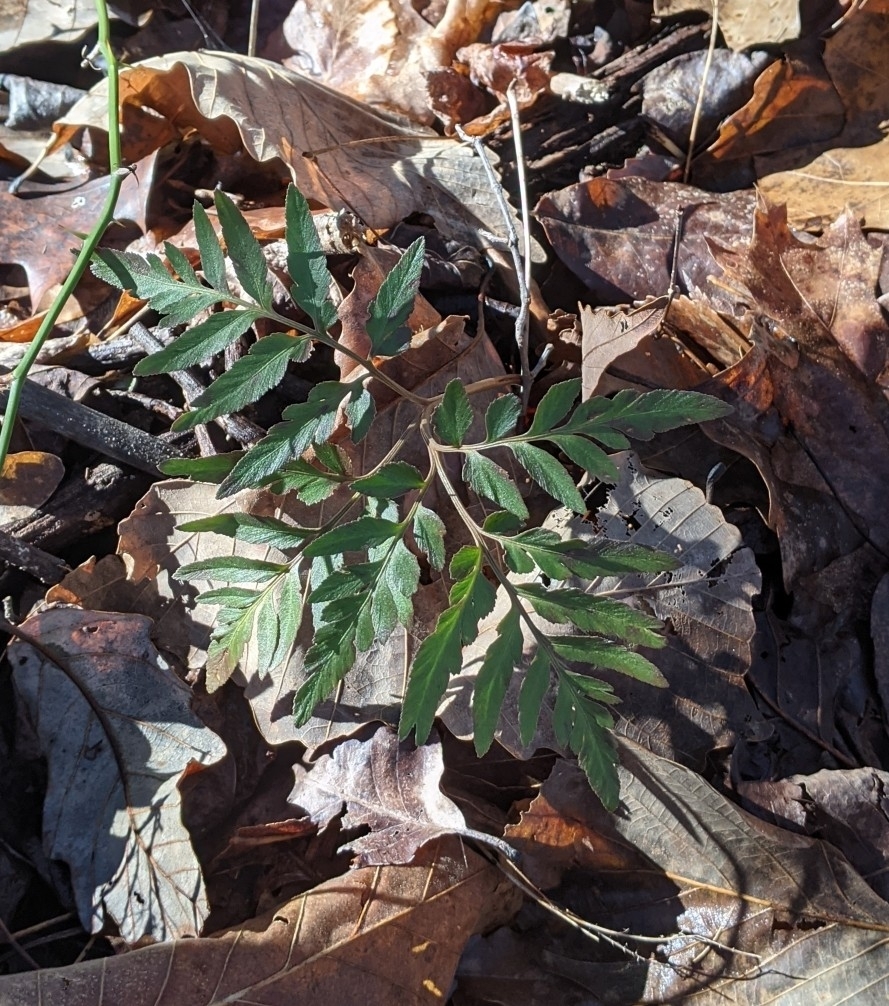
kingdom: Plantae
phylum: Tracheophyta
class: Polypodiopsida
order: Ophioglossales
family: Ophioglossaceae
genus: Sceptridium
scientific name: Sceptridium dissectum
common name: Cut-leaved grapefern
